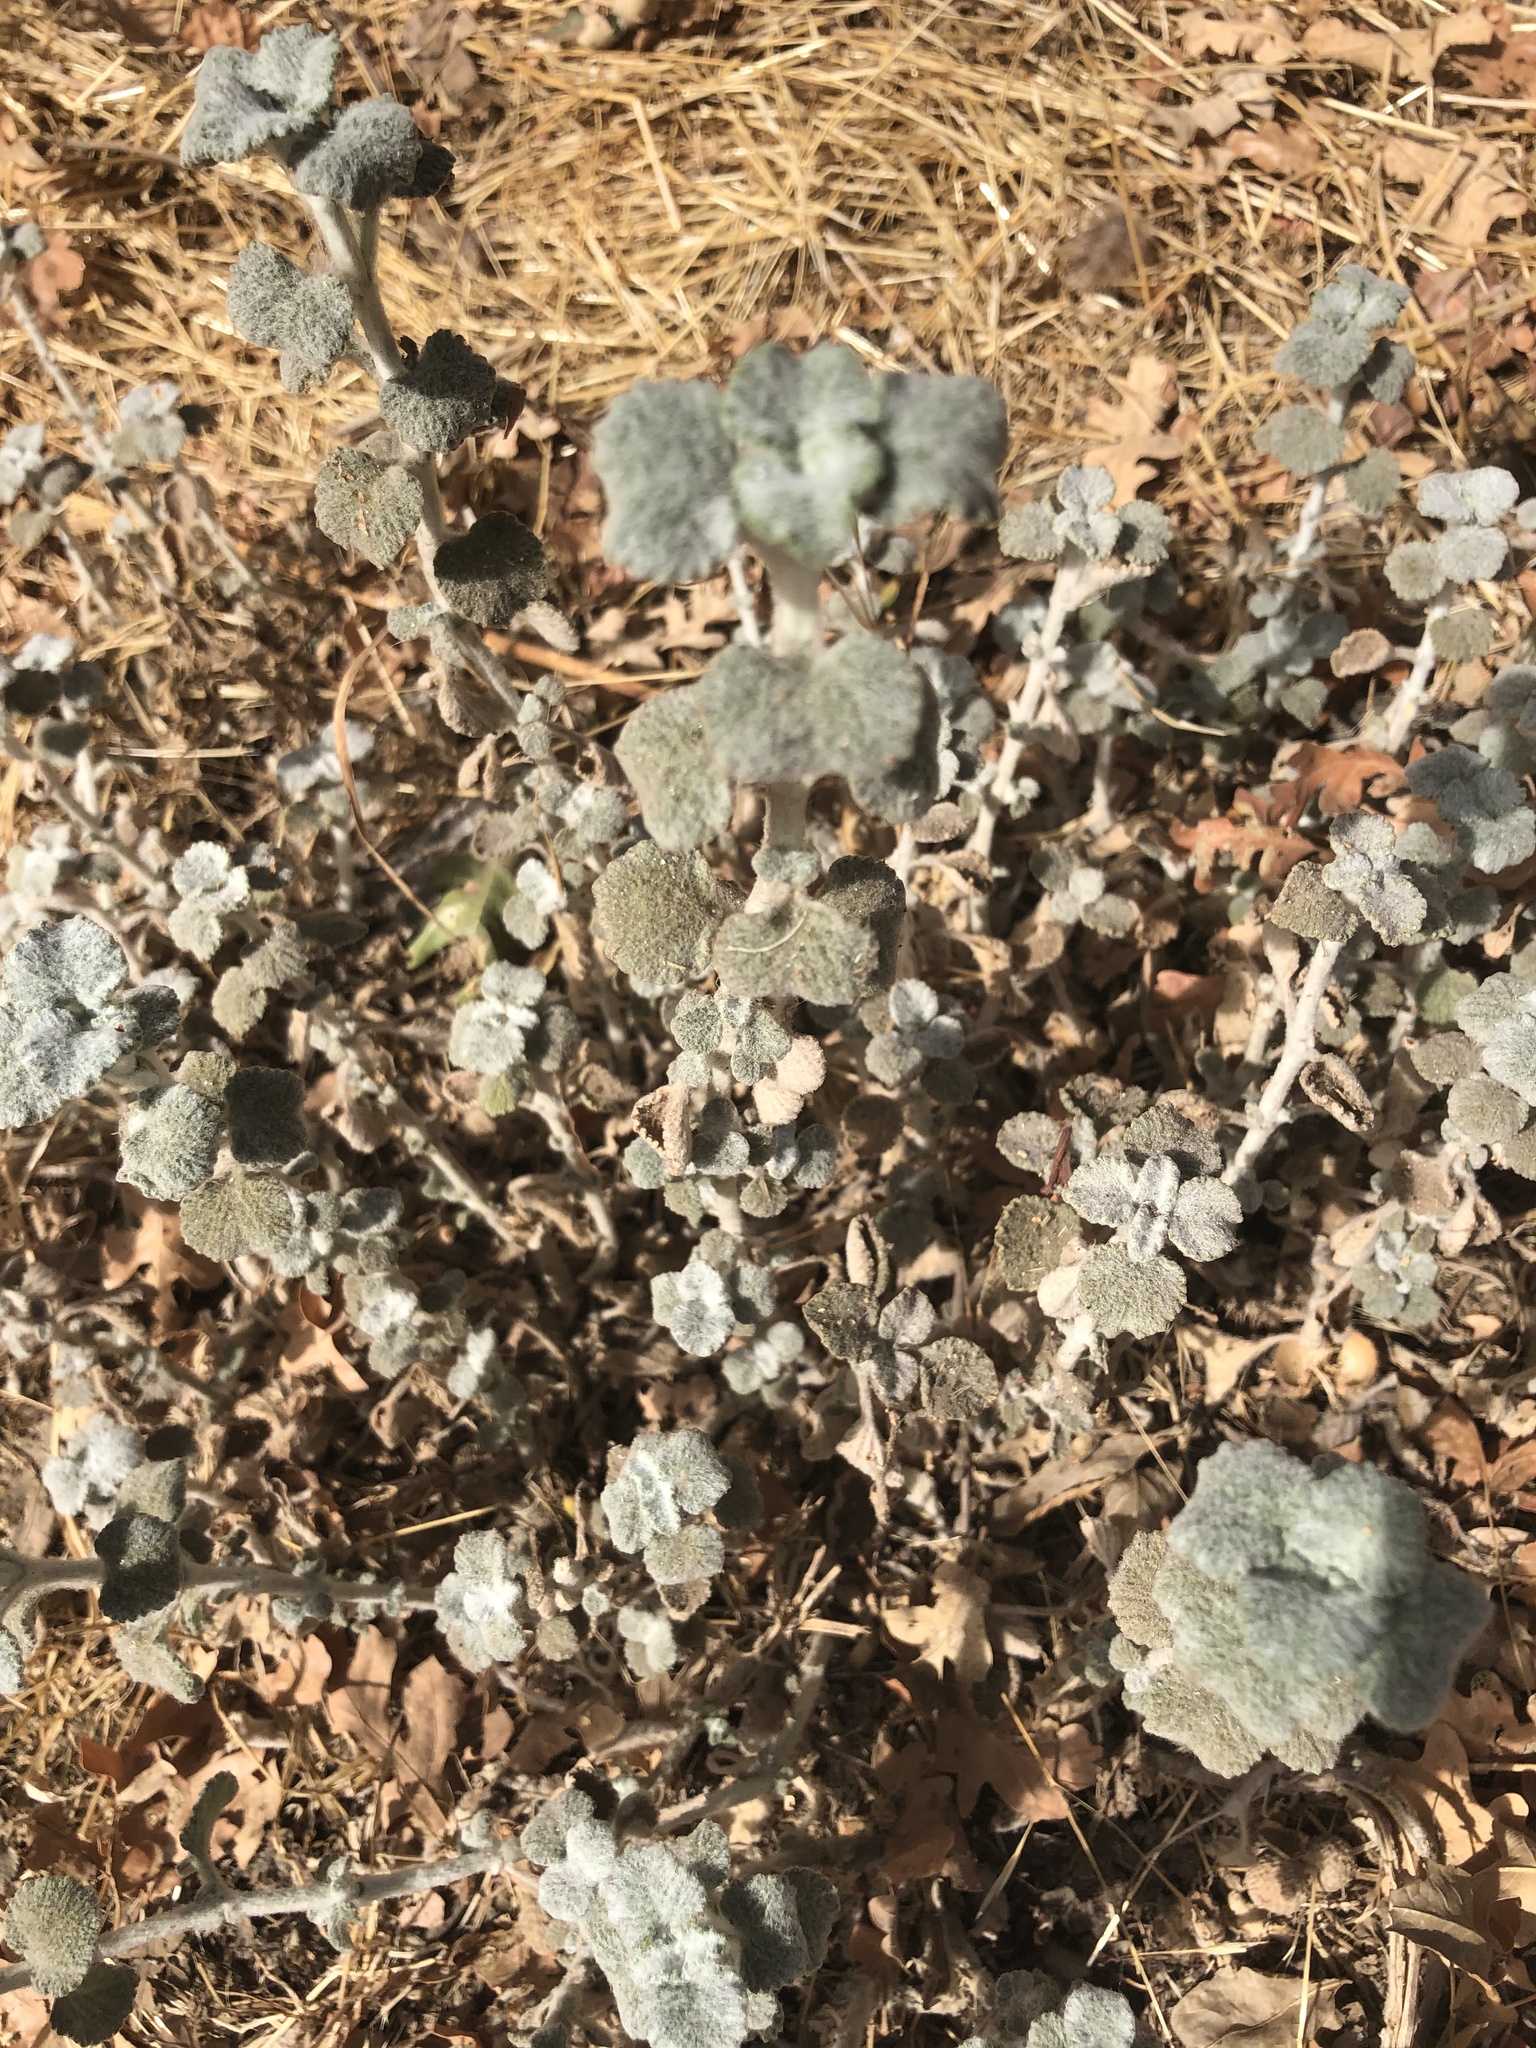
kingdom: Plantae
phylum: Tracheophyta
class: Magnoliopsida
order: Lamiales
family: Lamiaceae
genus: Marrubium
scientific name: Marrubium vulgare
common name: Horehound
